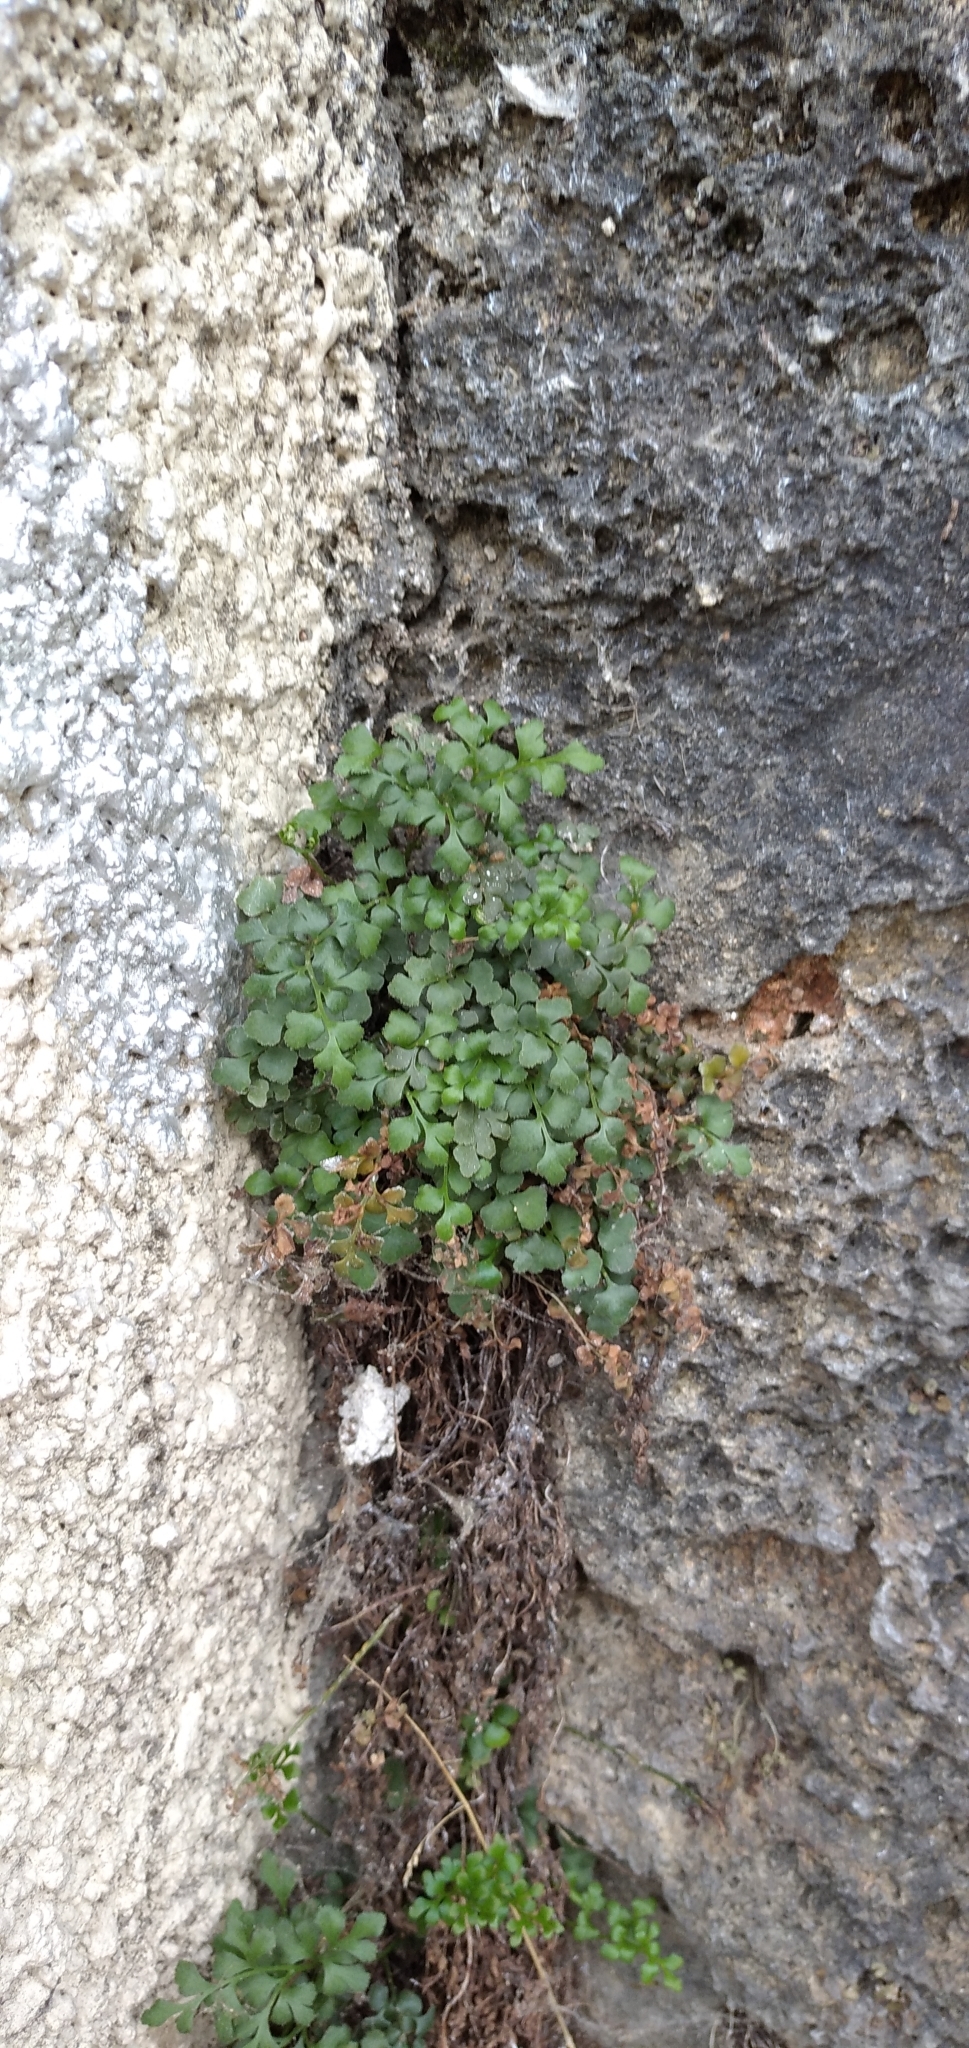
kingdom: Plantae
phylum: Tracheophyta
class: Polypodiopsida
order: Polypodiales
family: Aspleniaceae
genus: Asplenium
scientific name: Asplenium ruta-muraria
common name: Wall-rue
